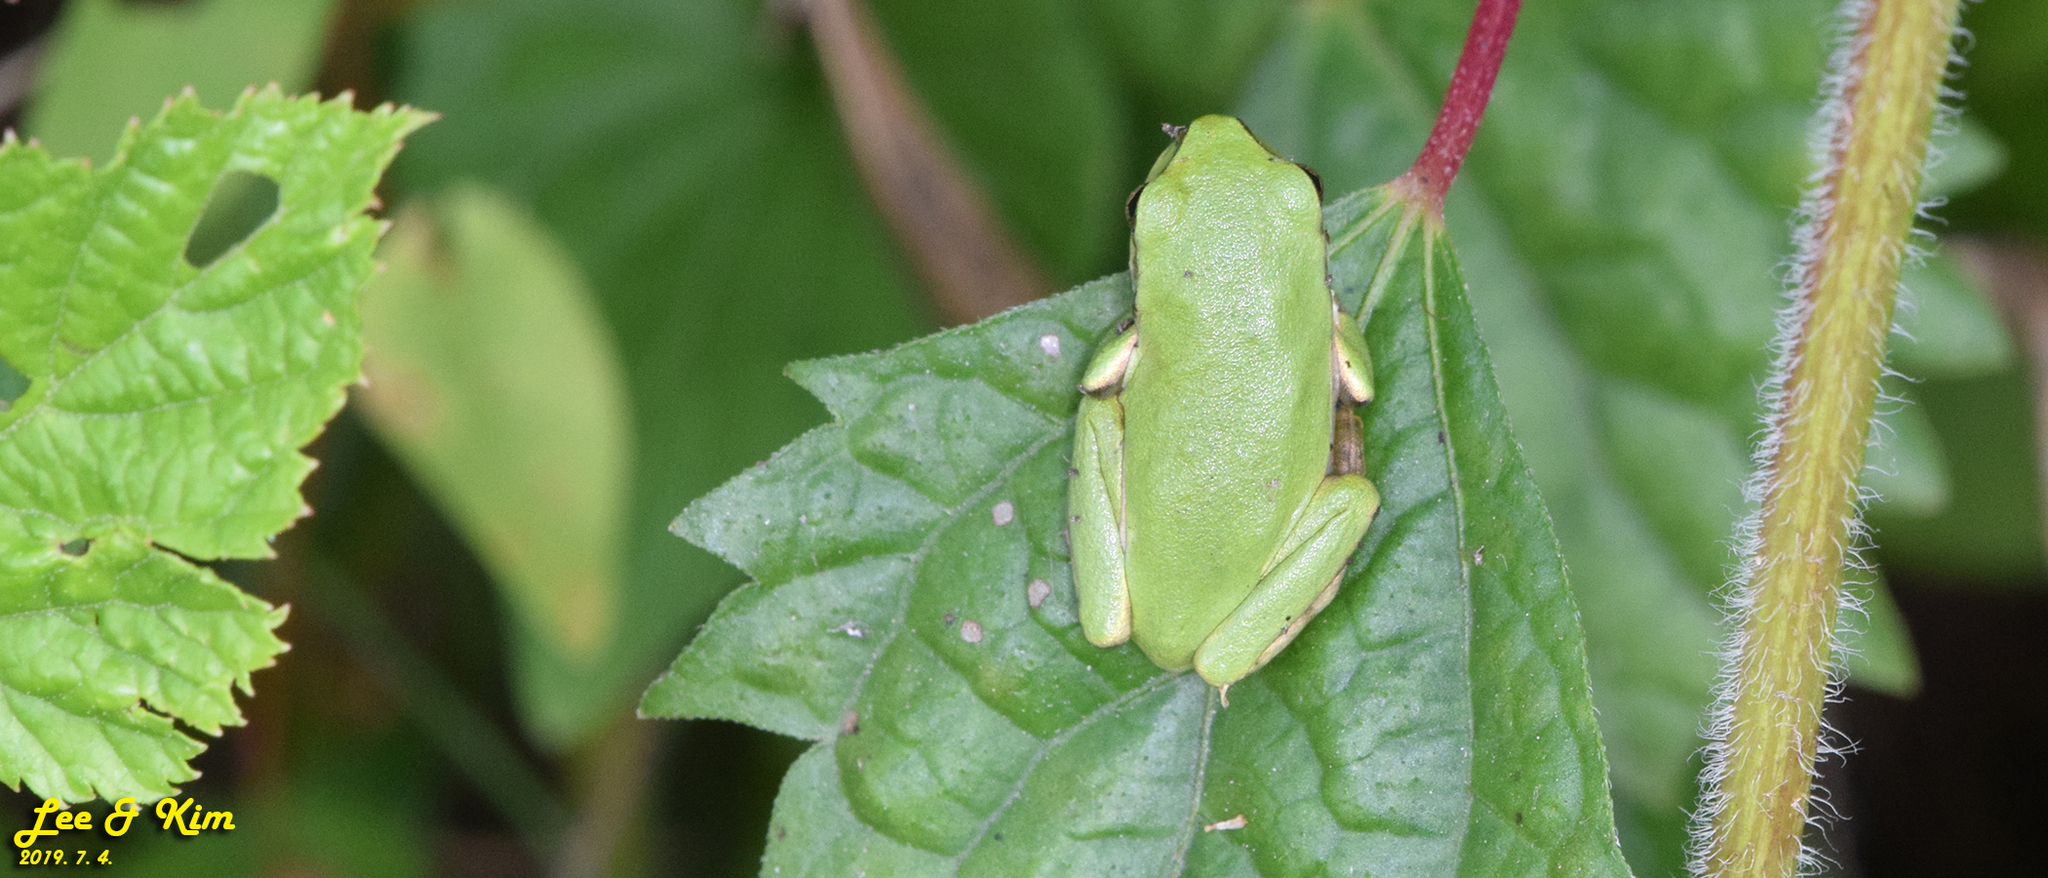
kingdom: Animalia
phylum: Chordata
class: Amphibia
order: Anura
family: Hylidae
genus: Dryophytes
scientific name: Dryophytes japonicus
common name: Japanese treefrog
